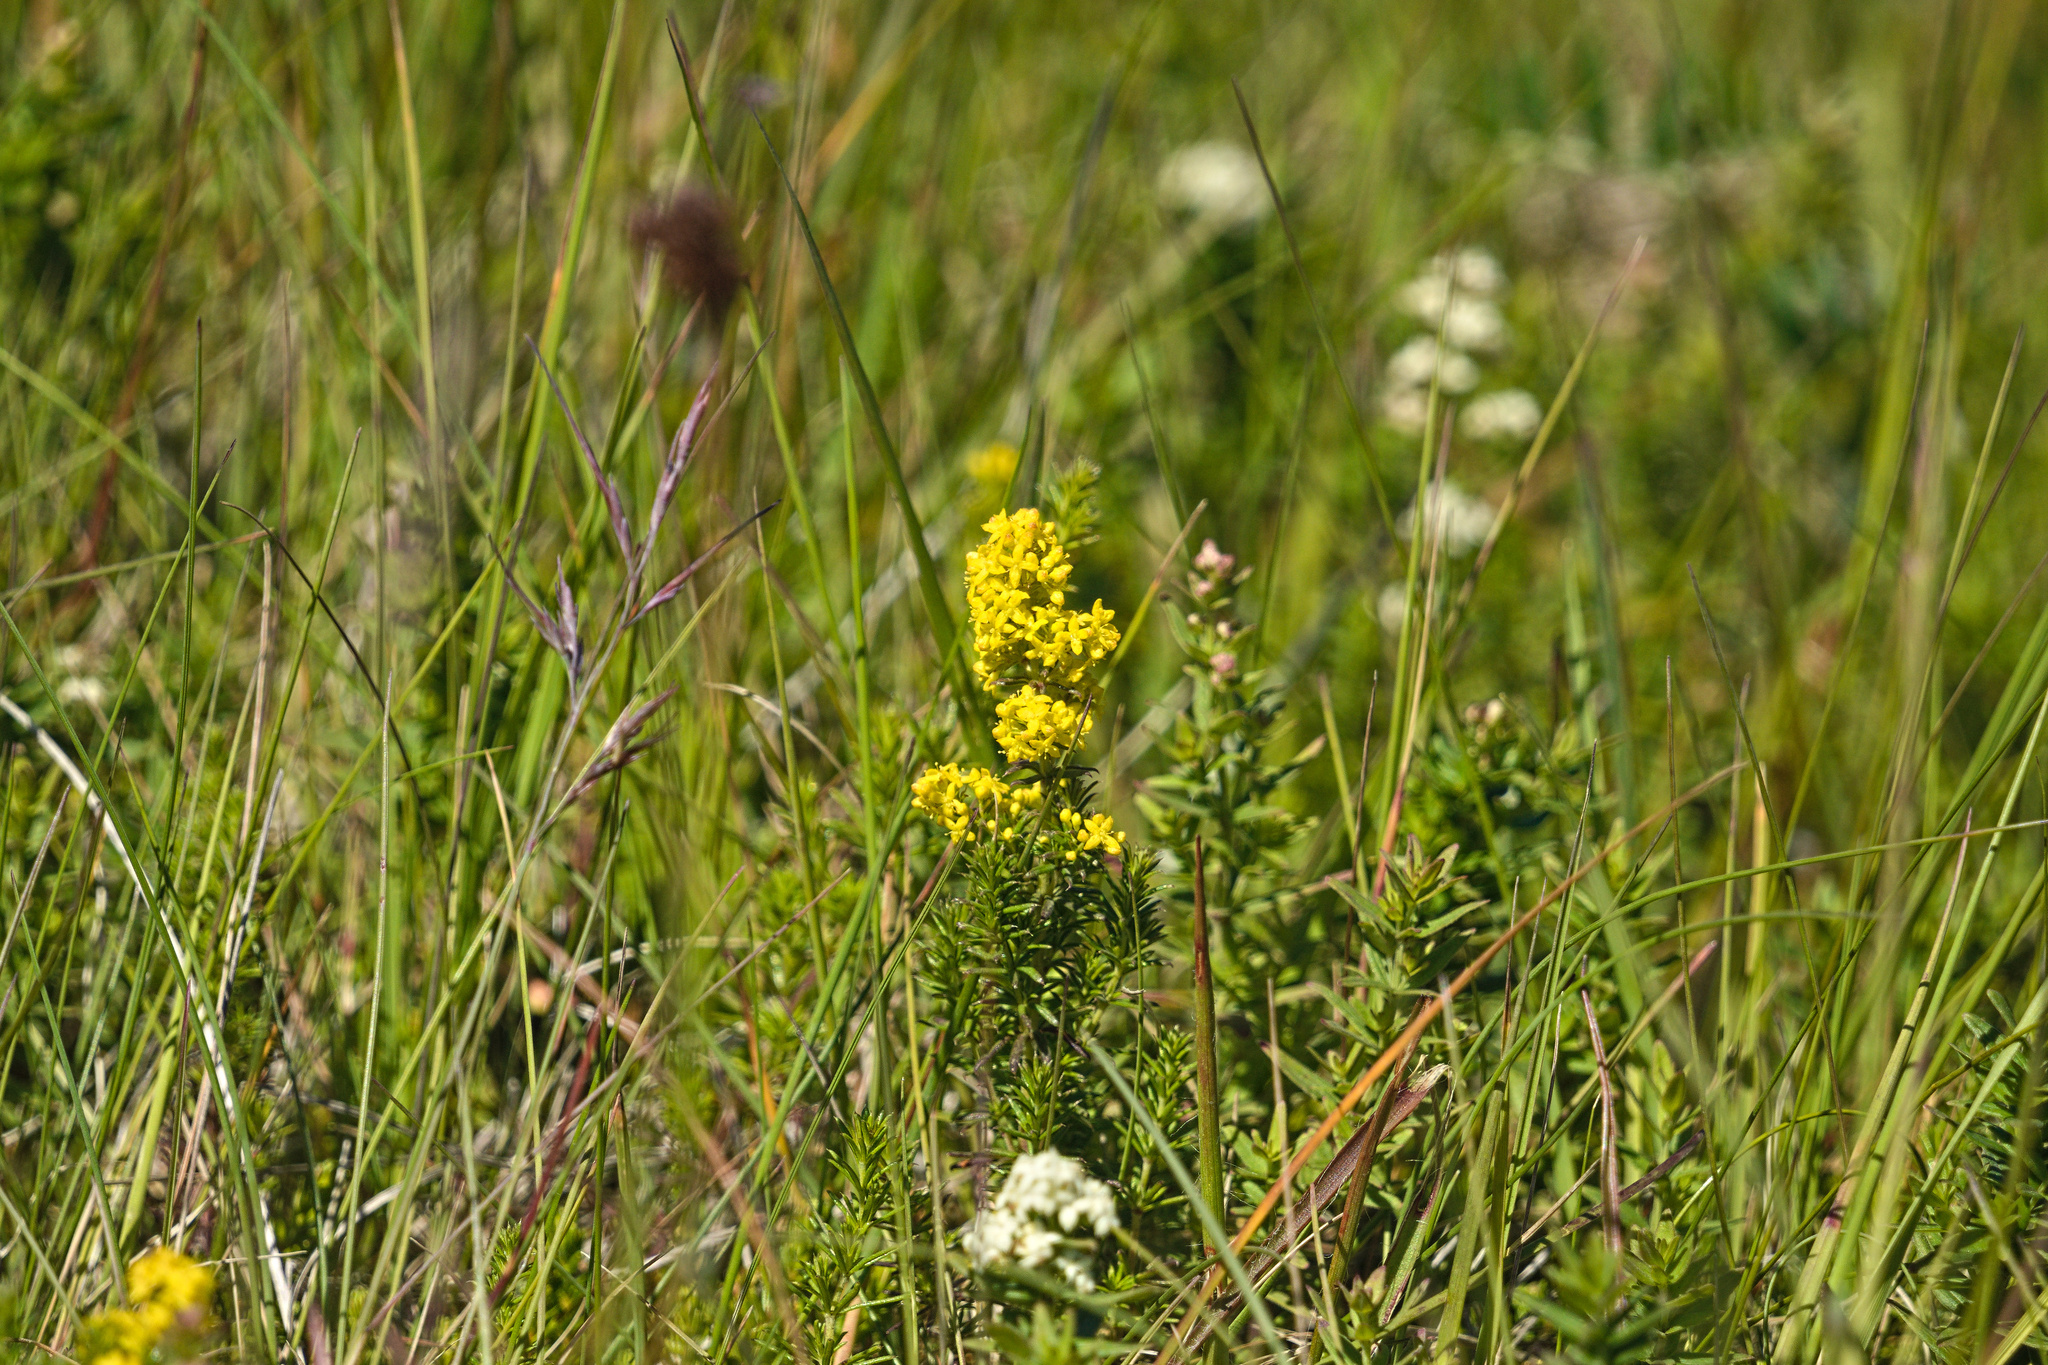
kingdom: Plantae
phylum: Tracheophyta
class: Magnoliopsida
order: Gentianales
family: Rubiaceae
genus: Galium
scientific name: Galium verum
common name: Lady's bedstraw
